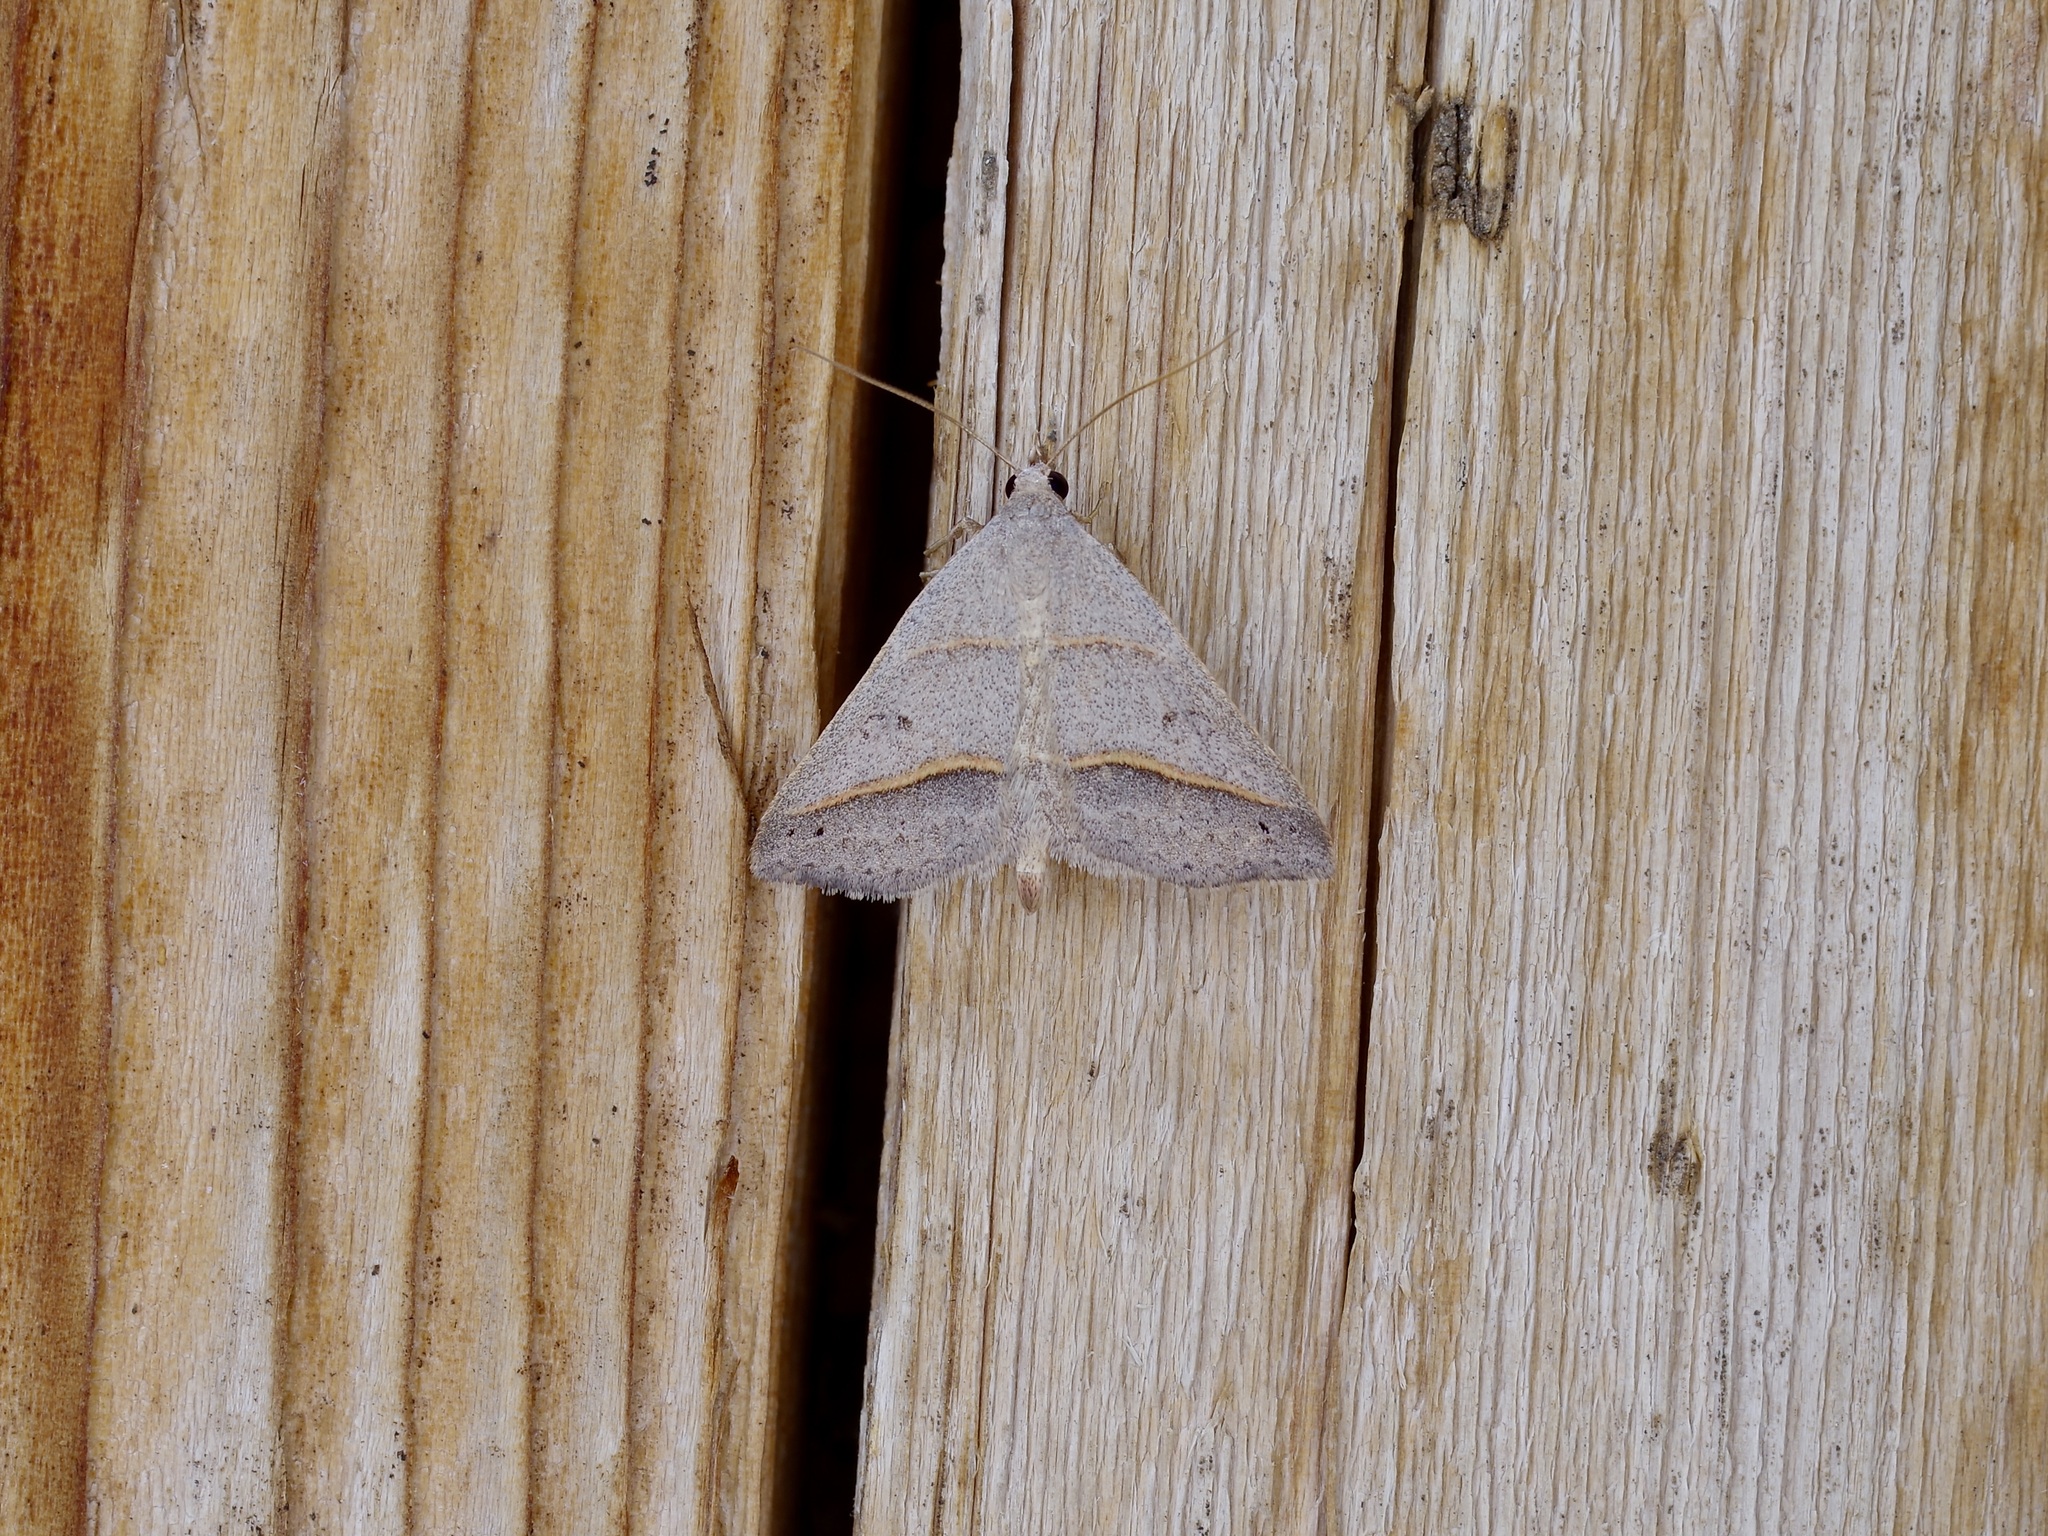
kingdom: Animalia
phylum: Arthropoda
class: Insecta
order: Lepidoptera
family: Erebidae
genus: Hemeroplanis
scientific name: Hemeroplanis trilineosa
